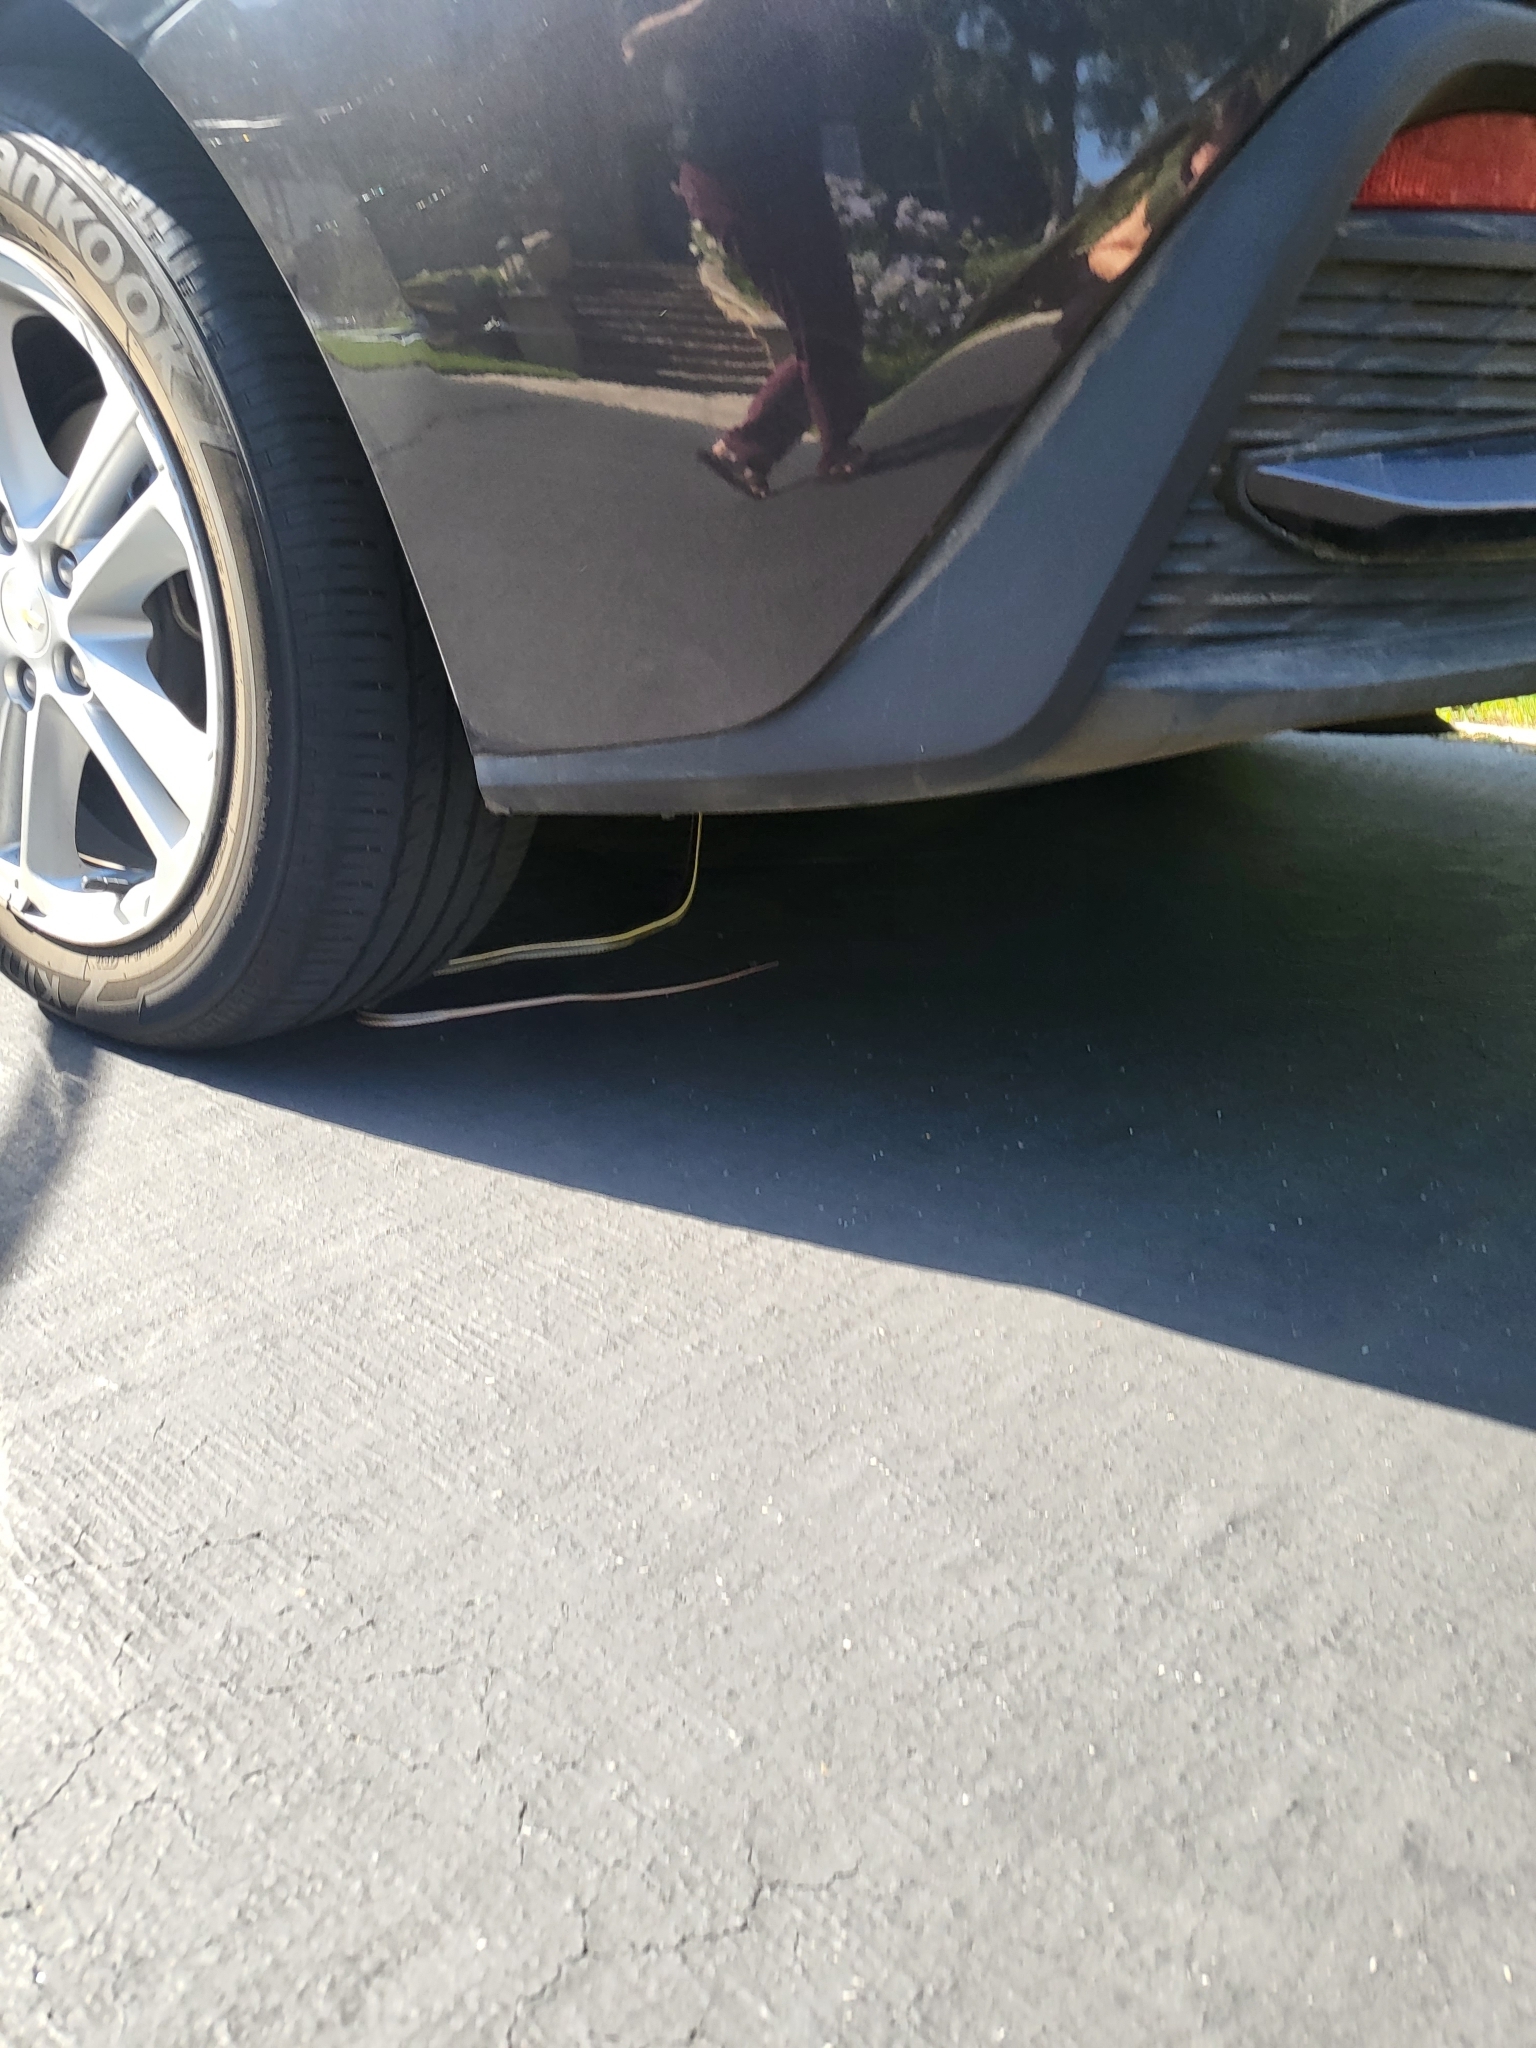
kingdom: Animalia
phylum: Chordata
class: Squamata
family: Colubridae
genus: Masticophis
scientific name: Masticophis lateralis
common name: Striped racer
